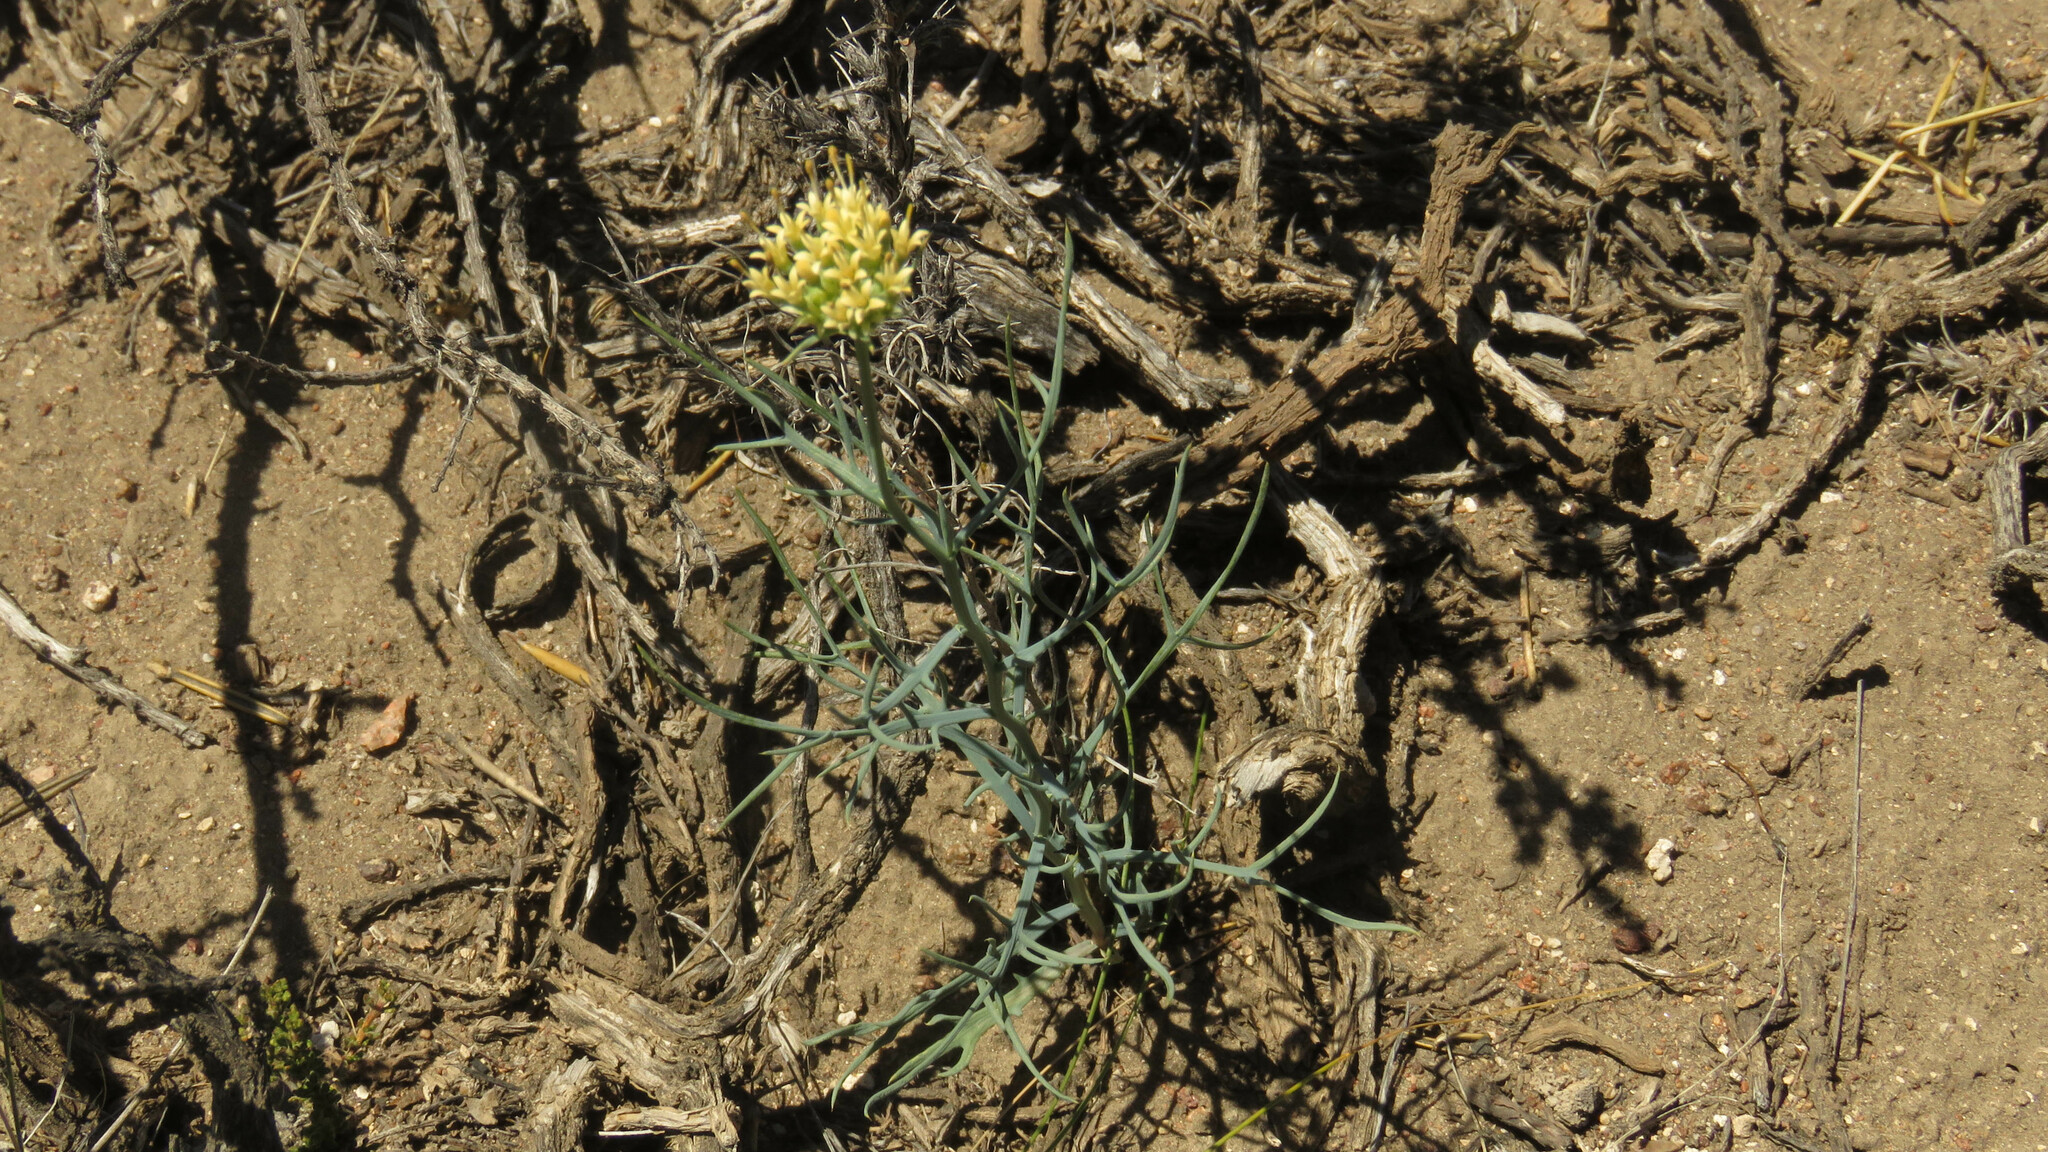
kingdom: Plantae
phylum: Tracheophyta
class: Magnoliopsida
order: Asterales
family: Calyceraceae
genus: Boopis
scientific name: Boopis anthemoides
